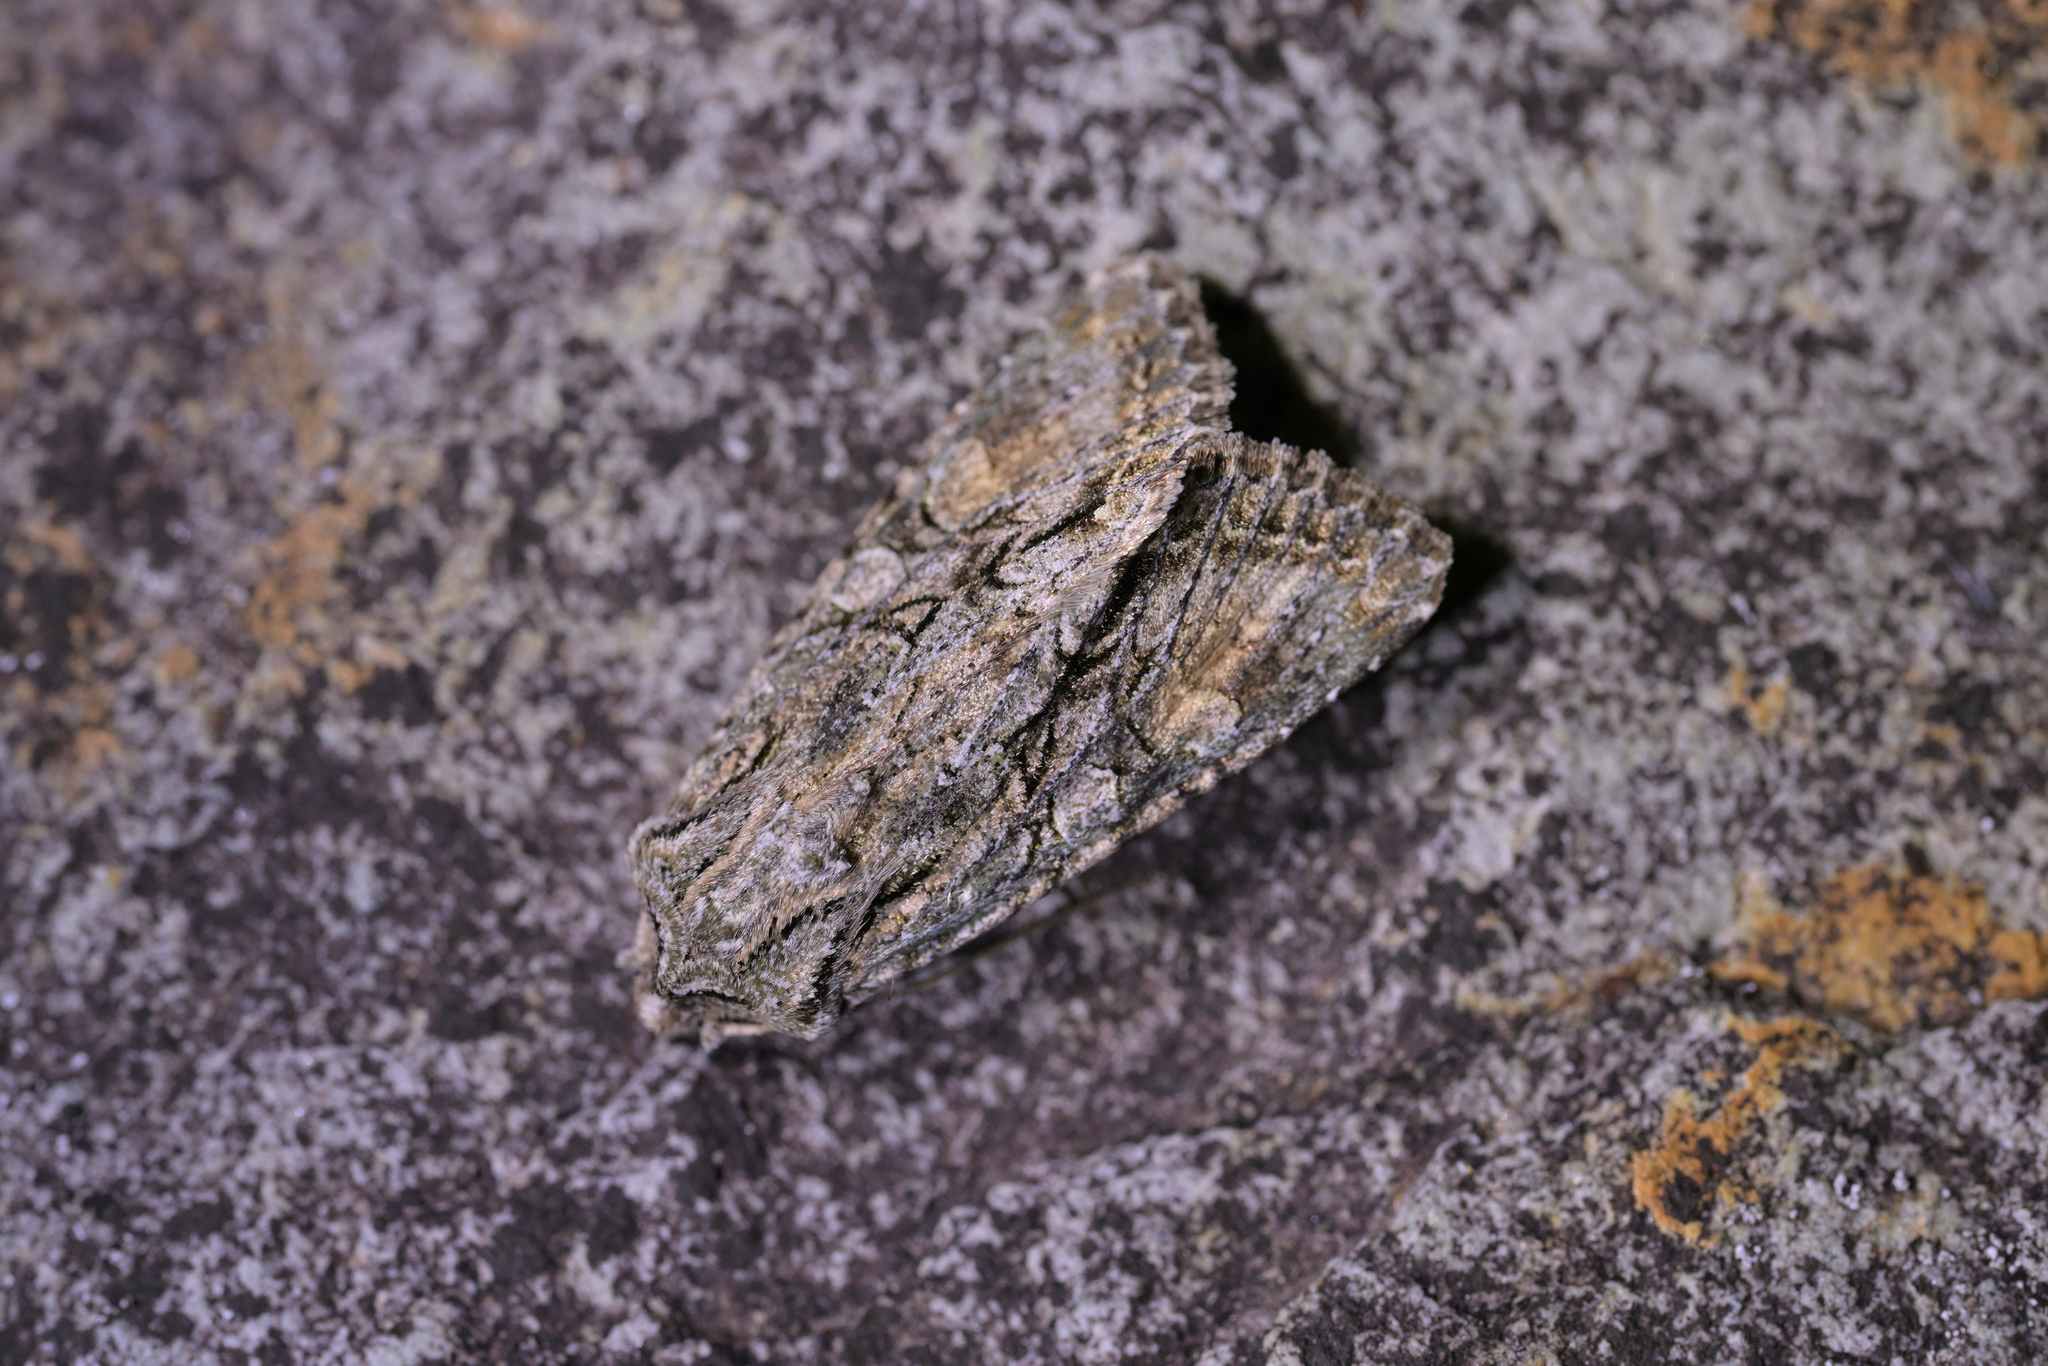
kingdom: Animalia
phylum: Arthropoda
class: Insecta
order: Lepidoptera
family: Noctuidae
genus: Ichneutica
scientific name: Ichneutica mutans
